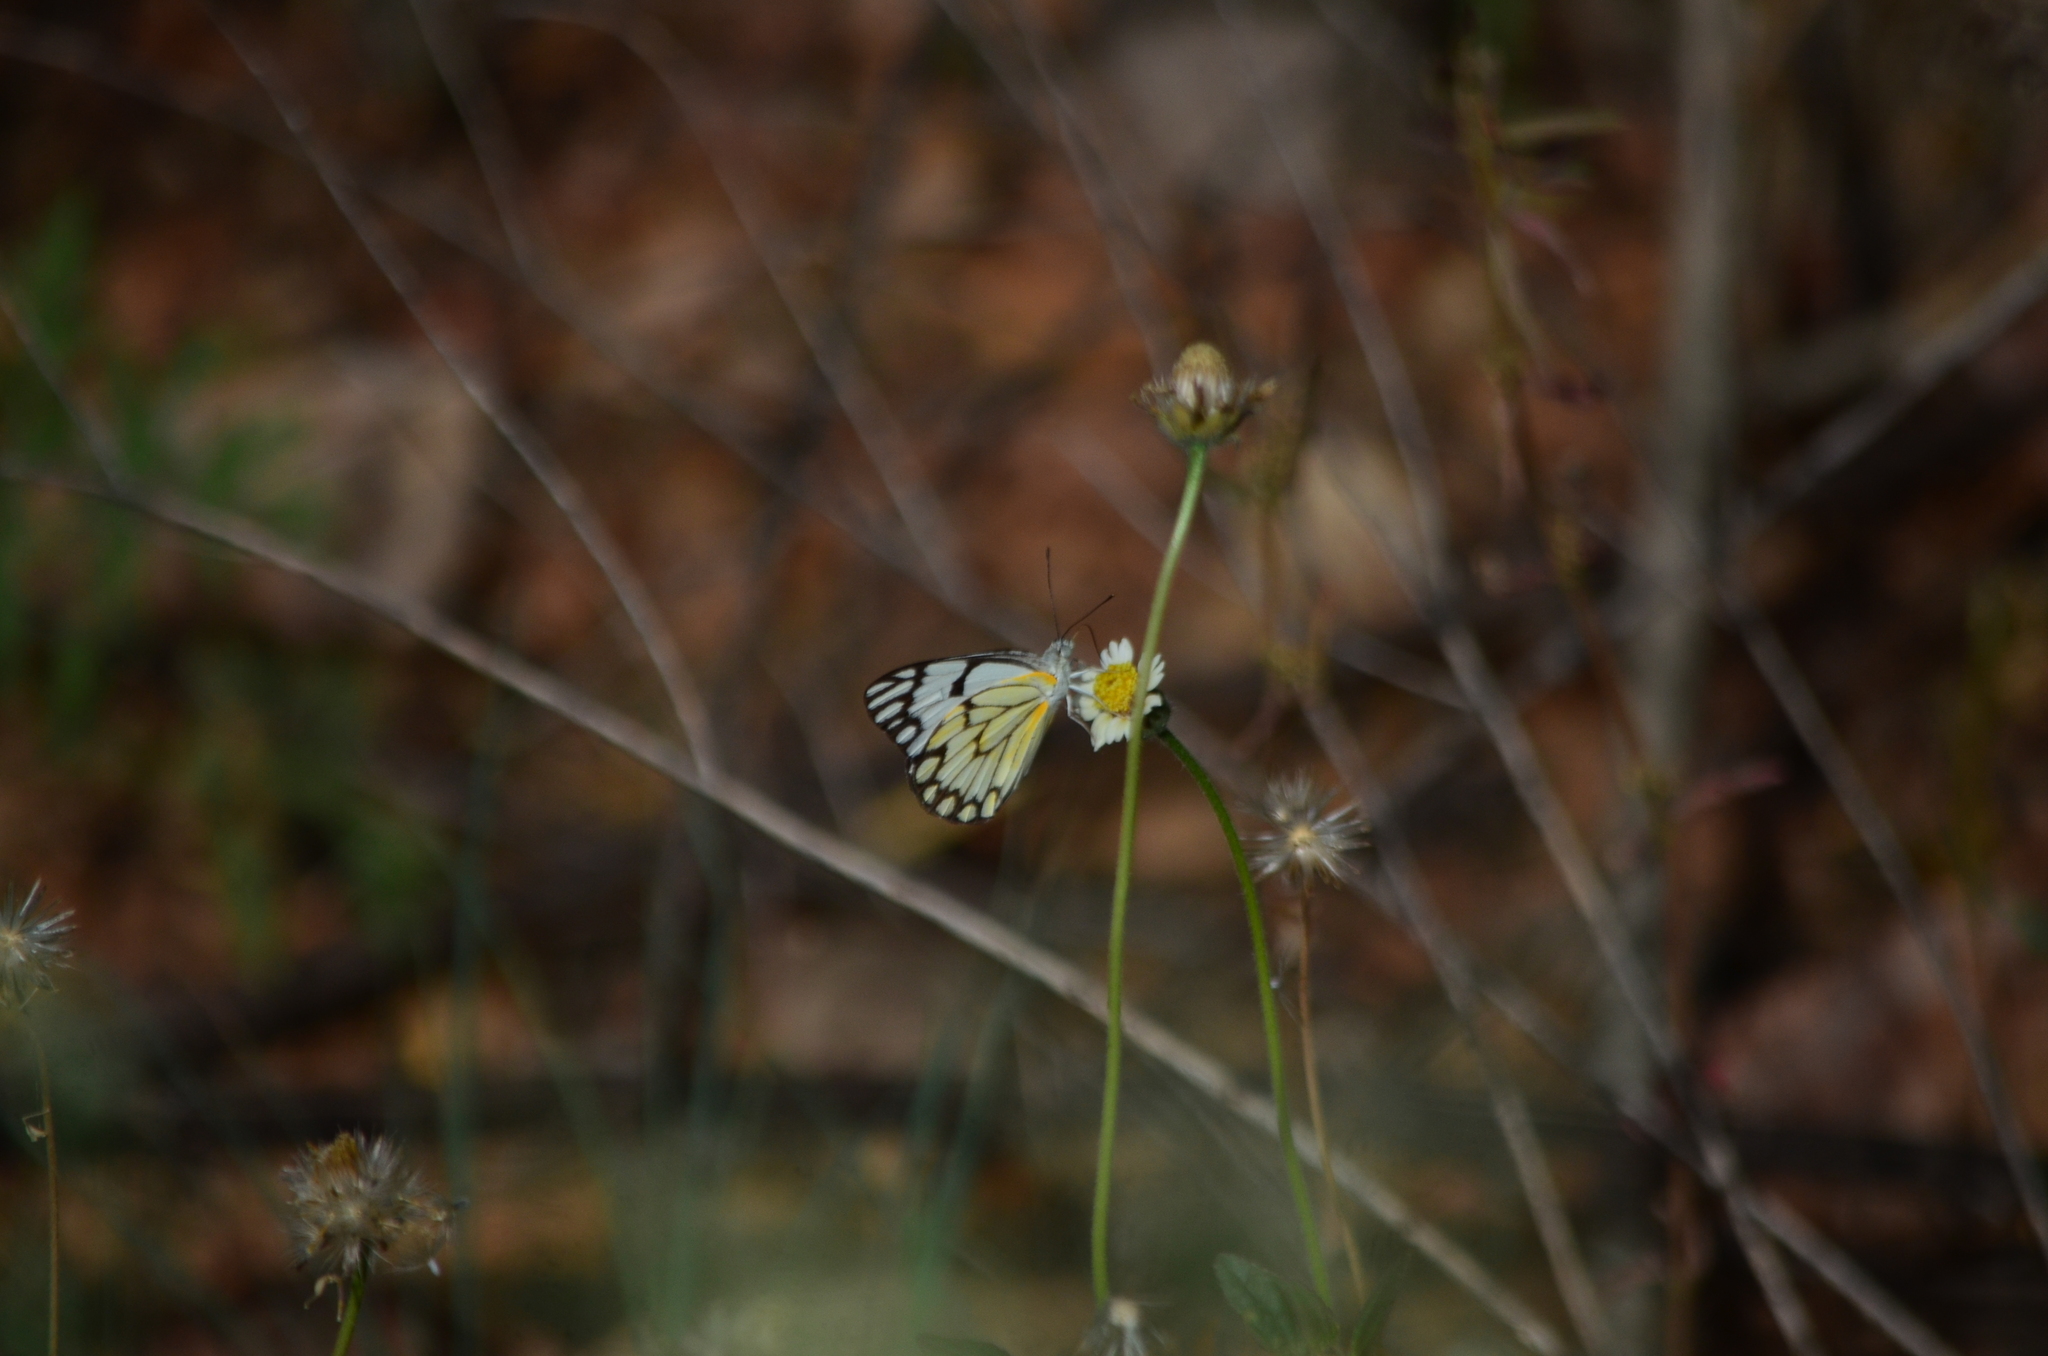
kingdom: Animalia
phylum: Arthropoda
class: Insecta
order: Lepidoptera
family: Pieridae
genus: Belenois
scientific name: Belenois aurota
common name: Brown-veined white
